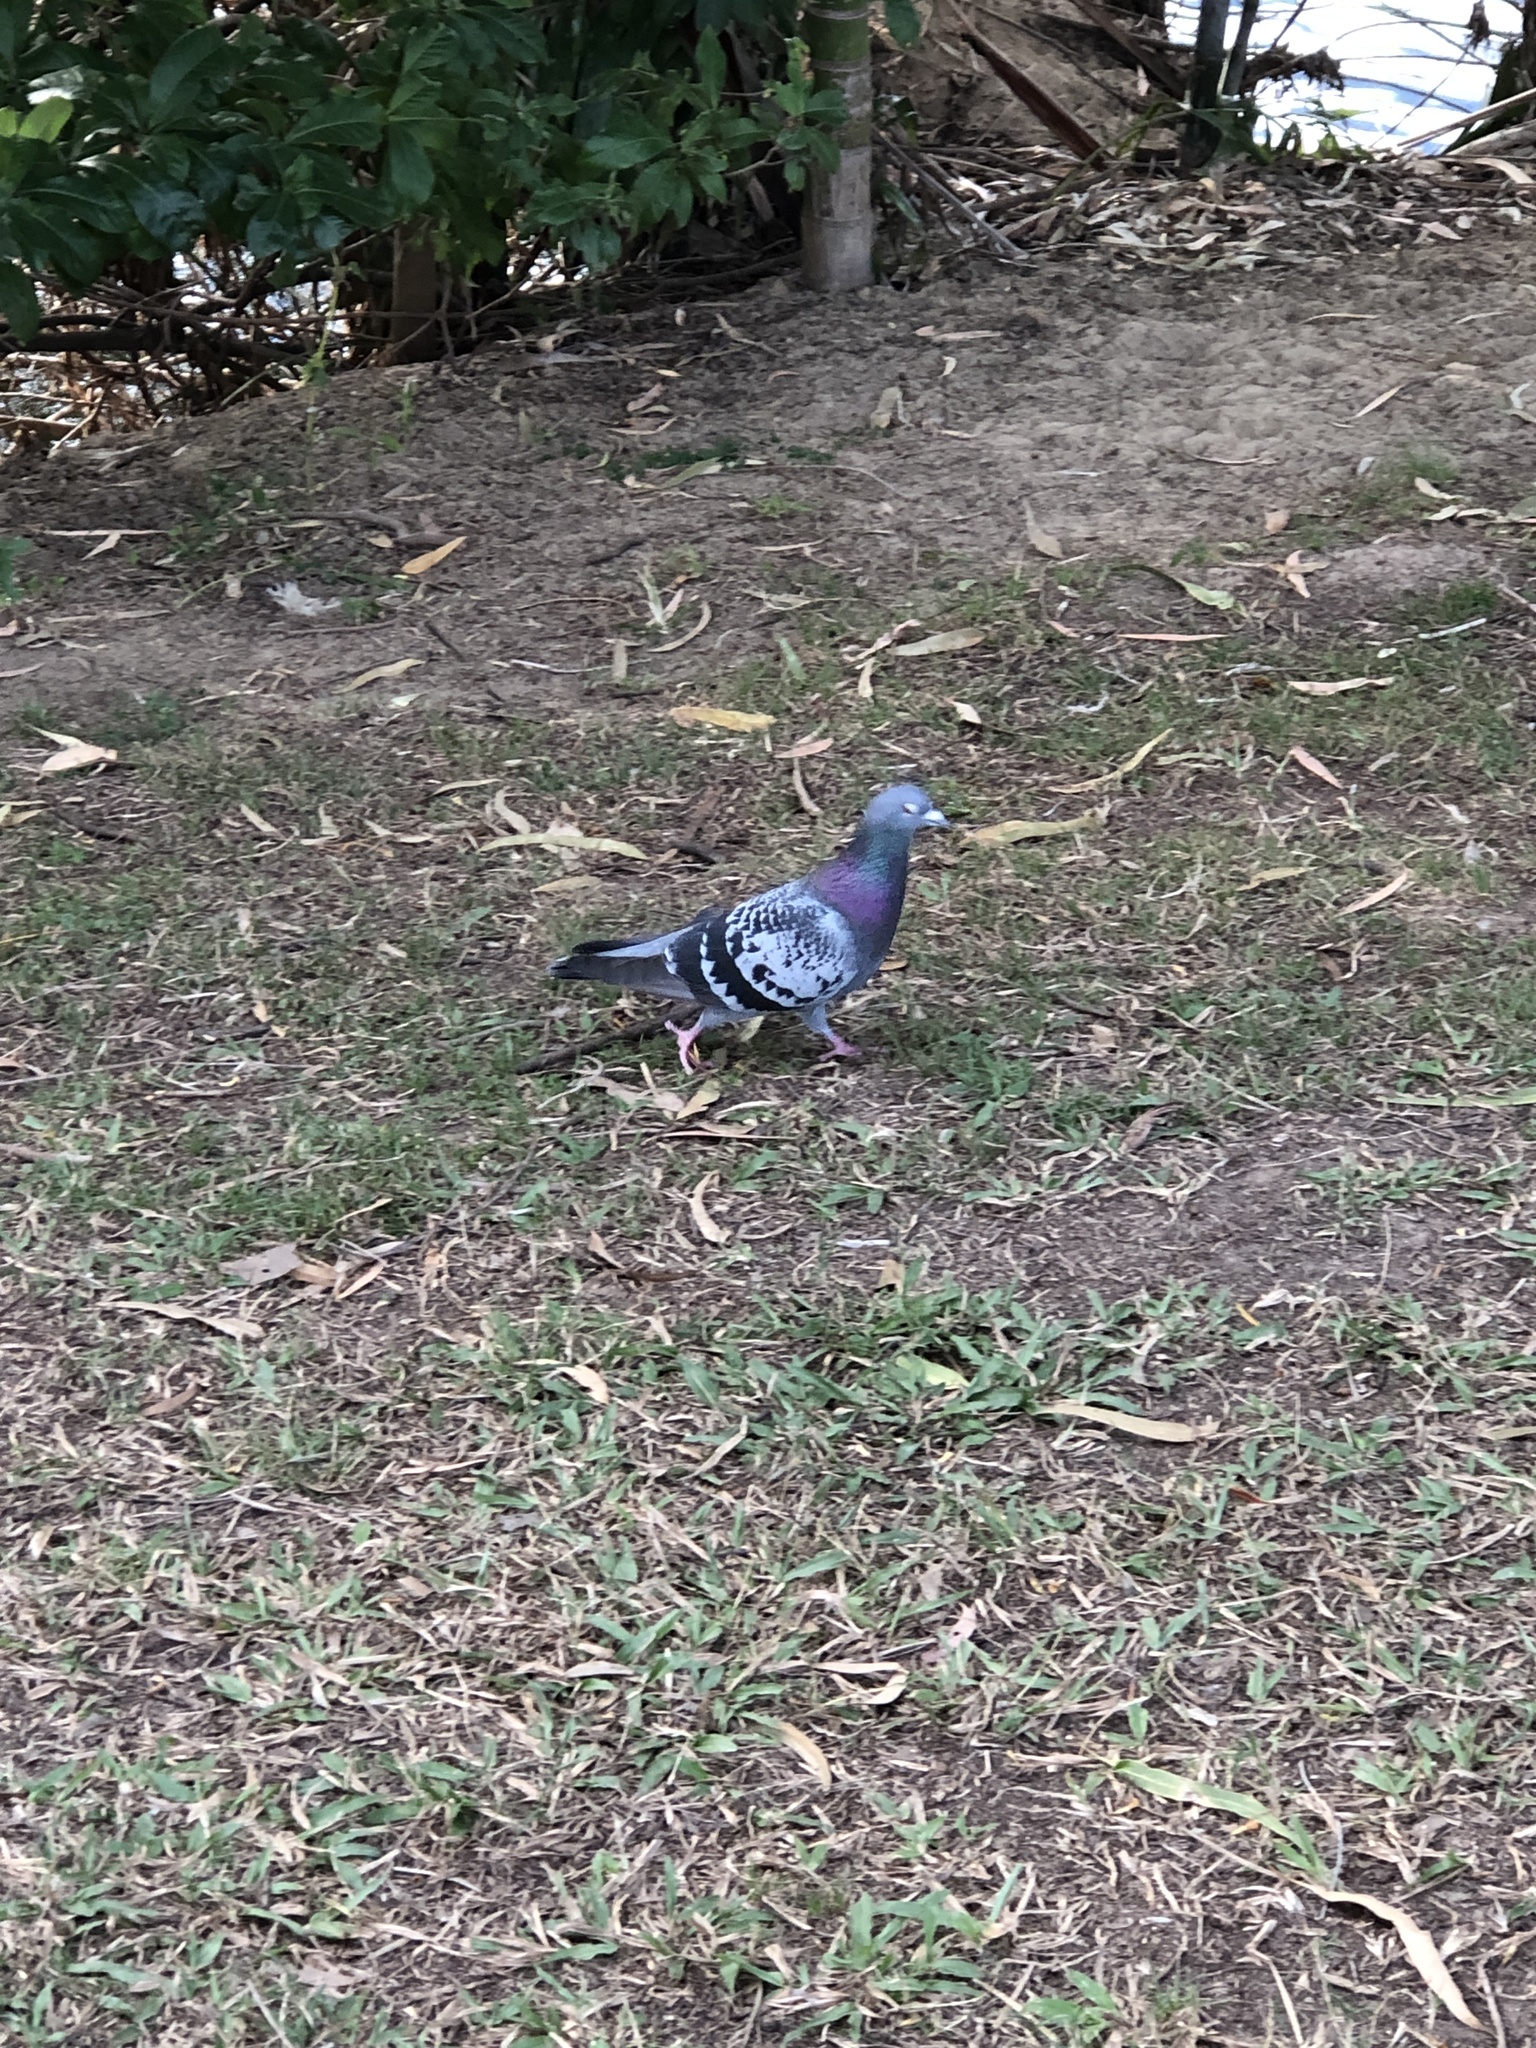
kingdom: Animalia
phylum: Chordata
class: Aves
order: Columbiformes
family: Columbidae
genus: Columba
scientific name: Columba livia
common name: Rock pigeon
